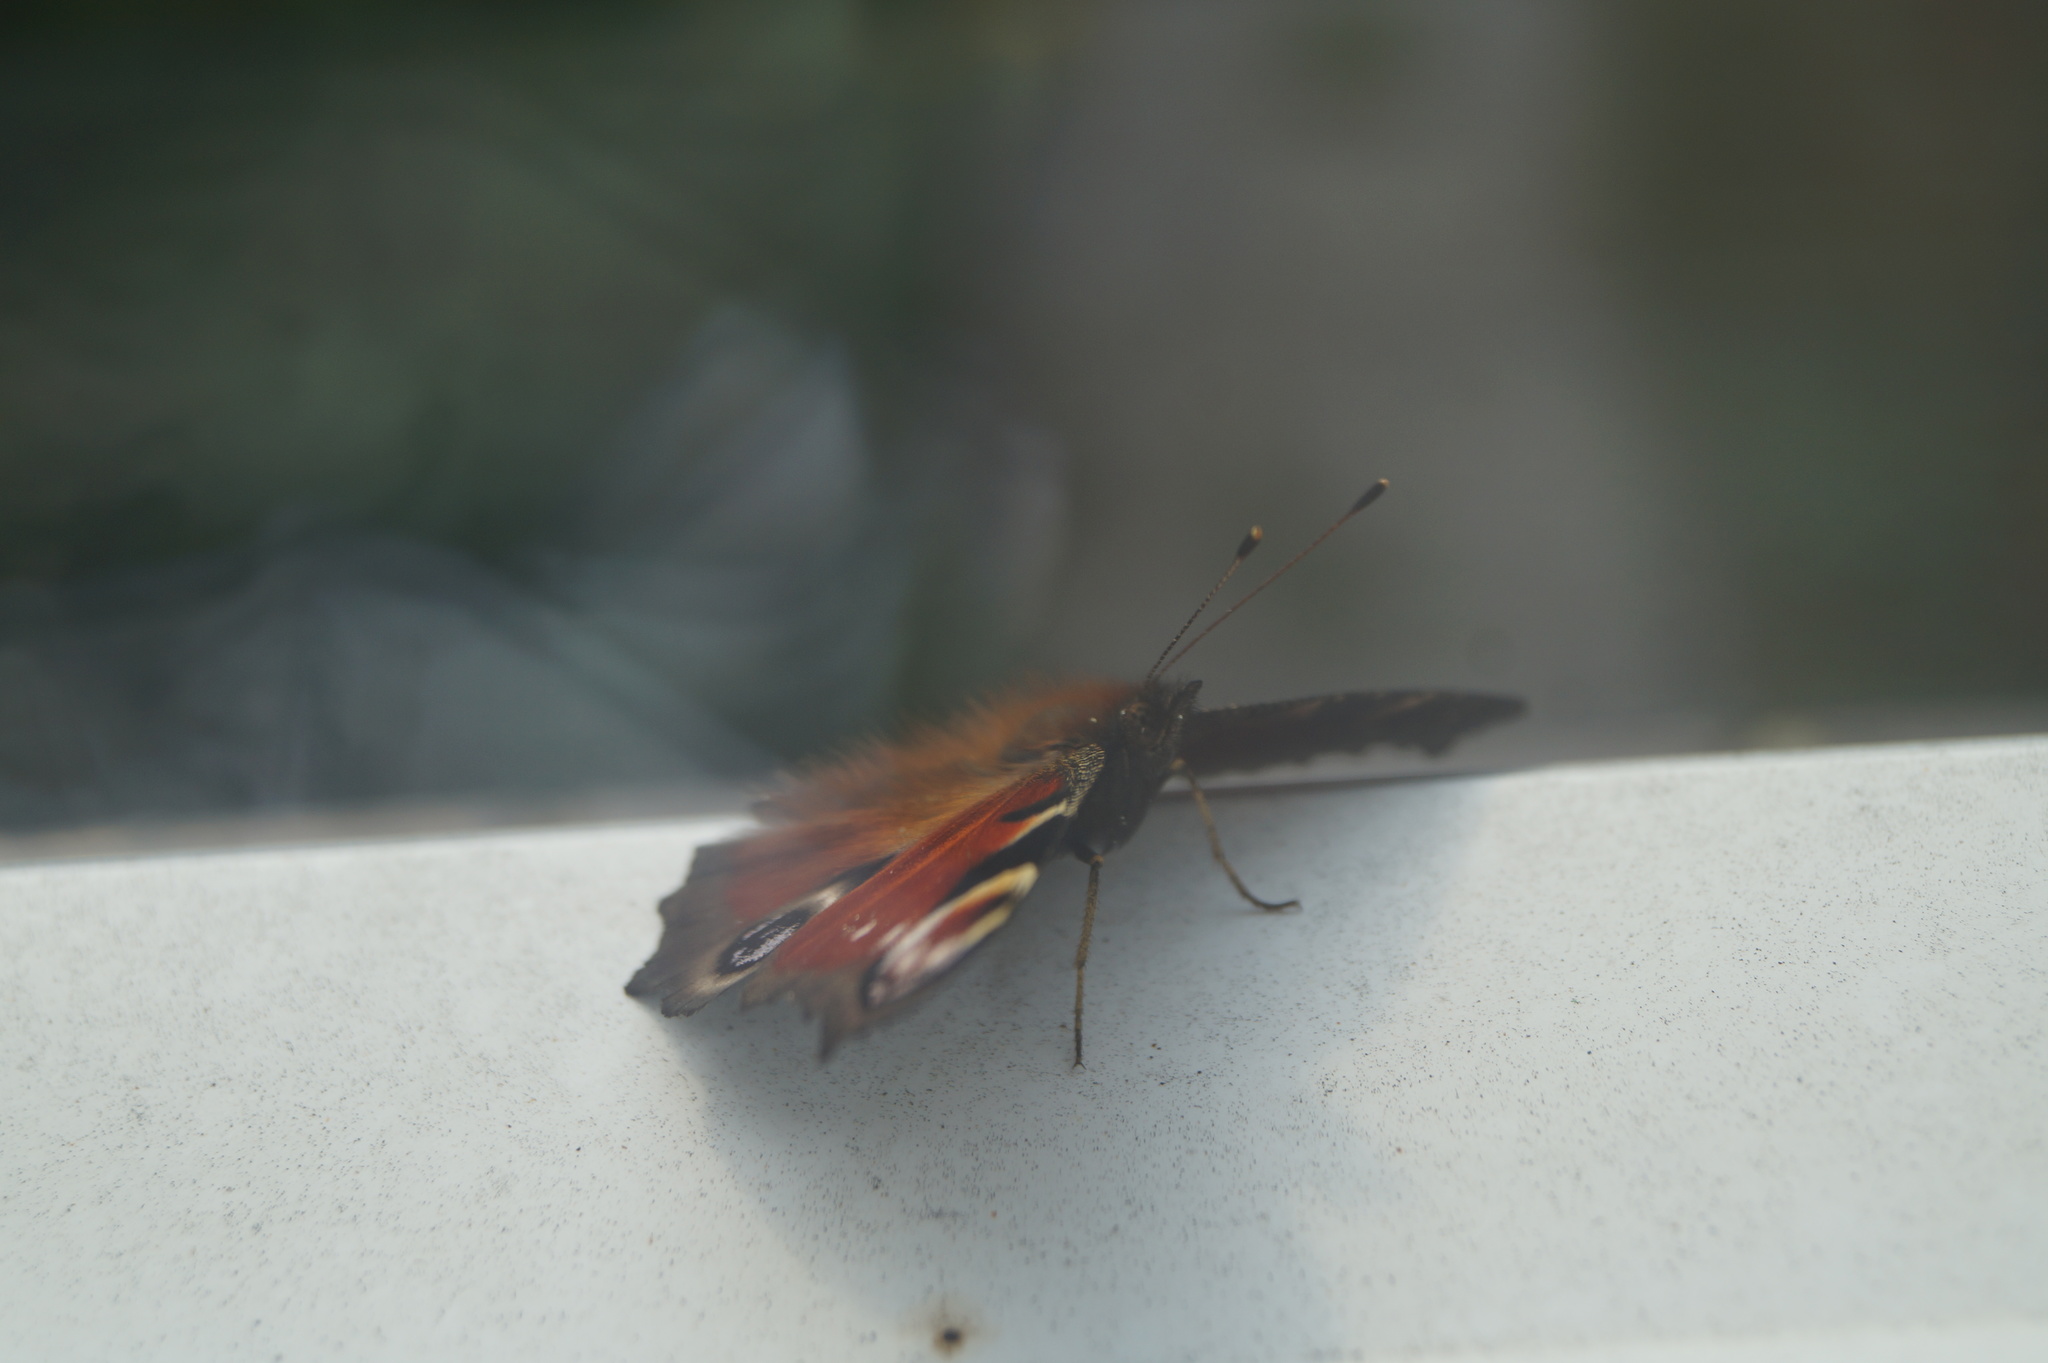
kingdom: Animalia
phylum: Arthropoda
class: Insecta
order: Lepidoptera
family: Nymphalidae
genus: Aglais
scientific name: Aglais io
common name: Peacock
